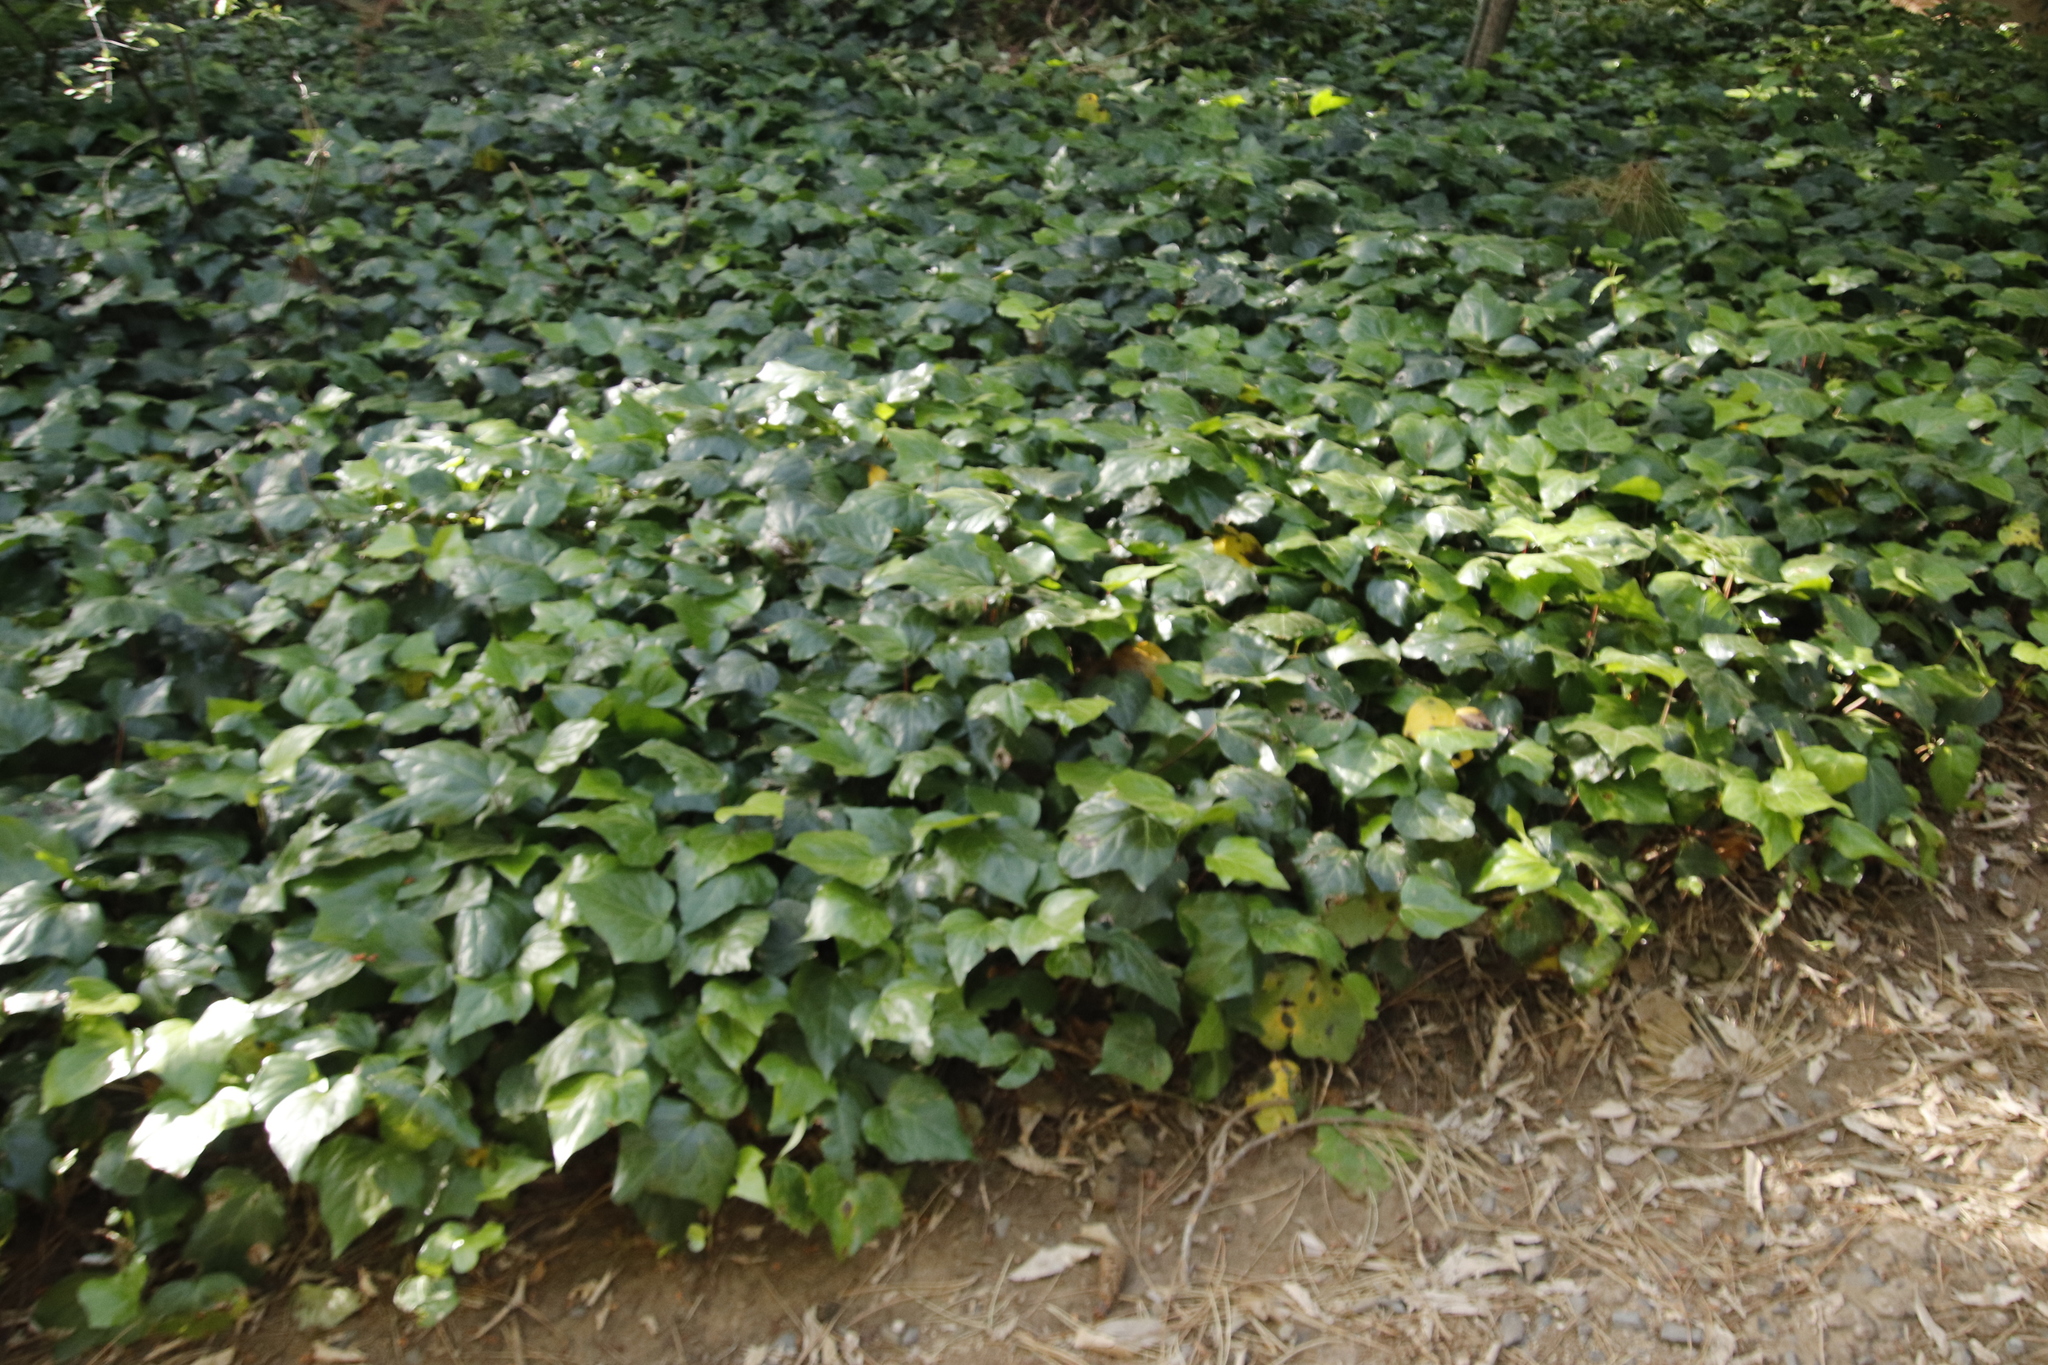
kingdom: Plantae
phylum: Tracheophyta
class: Magnoliopsida
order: Apiales
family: Araliaceae
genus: Hedera
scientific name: Hedera canariensis
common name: Madeira ivy
